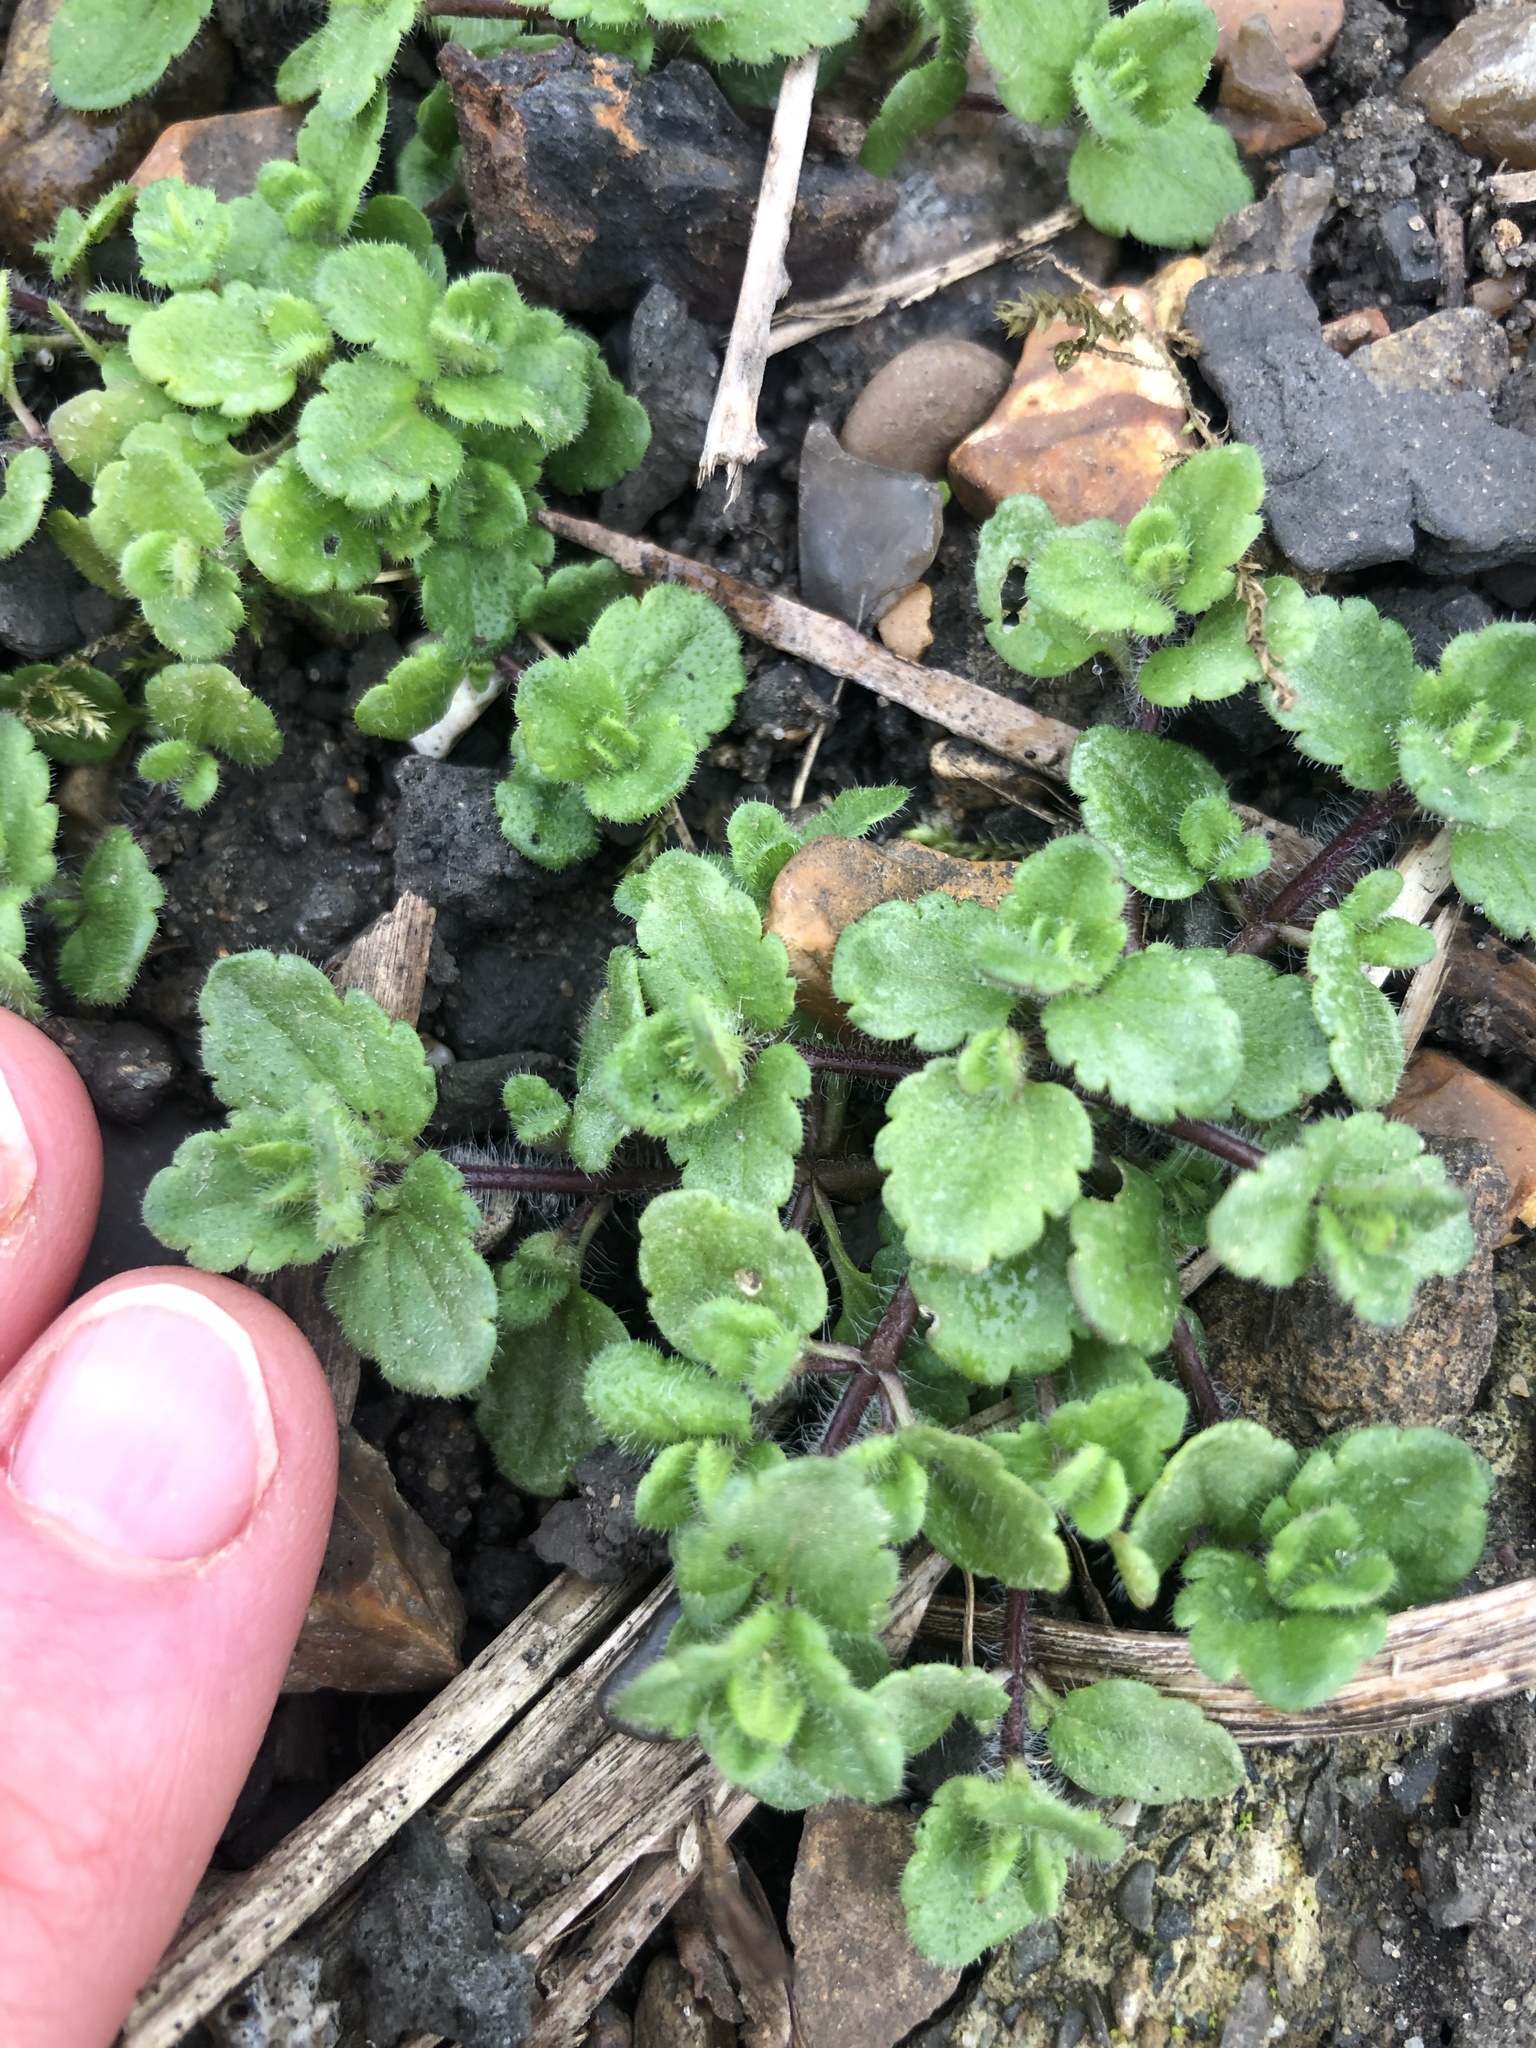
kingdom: Plantae
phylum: Tracheophyta
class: Magnoliopsida
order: Lamiales
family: Plantaginaceae
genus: Veronica
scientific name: Veronica arvensis
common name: Corn speedwell
